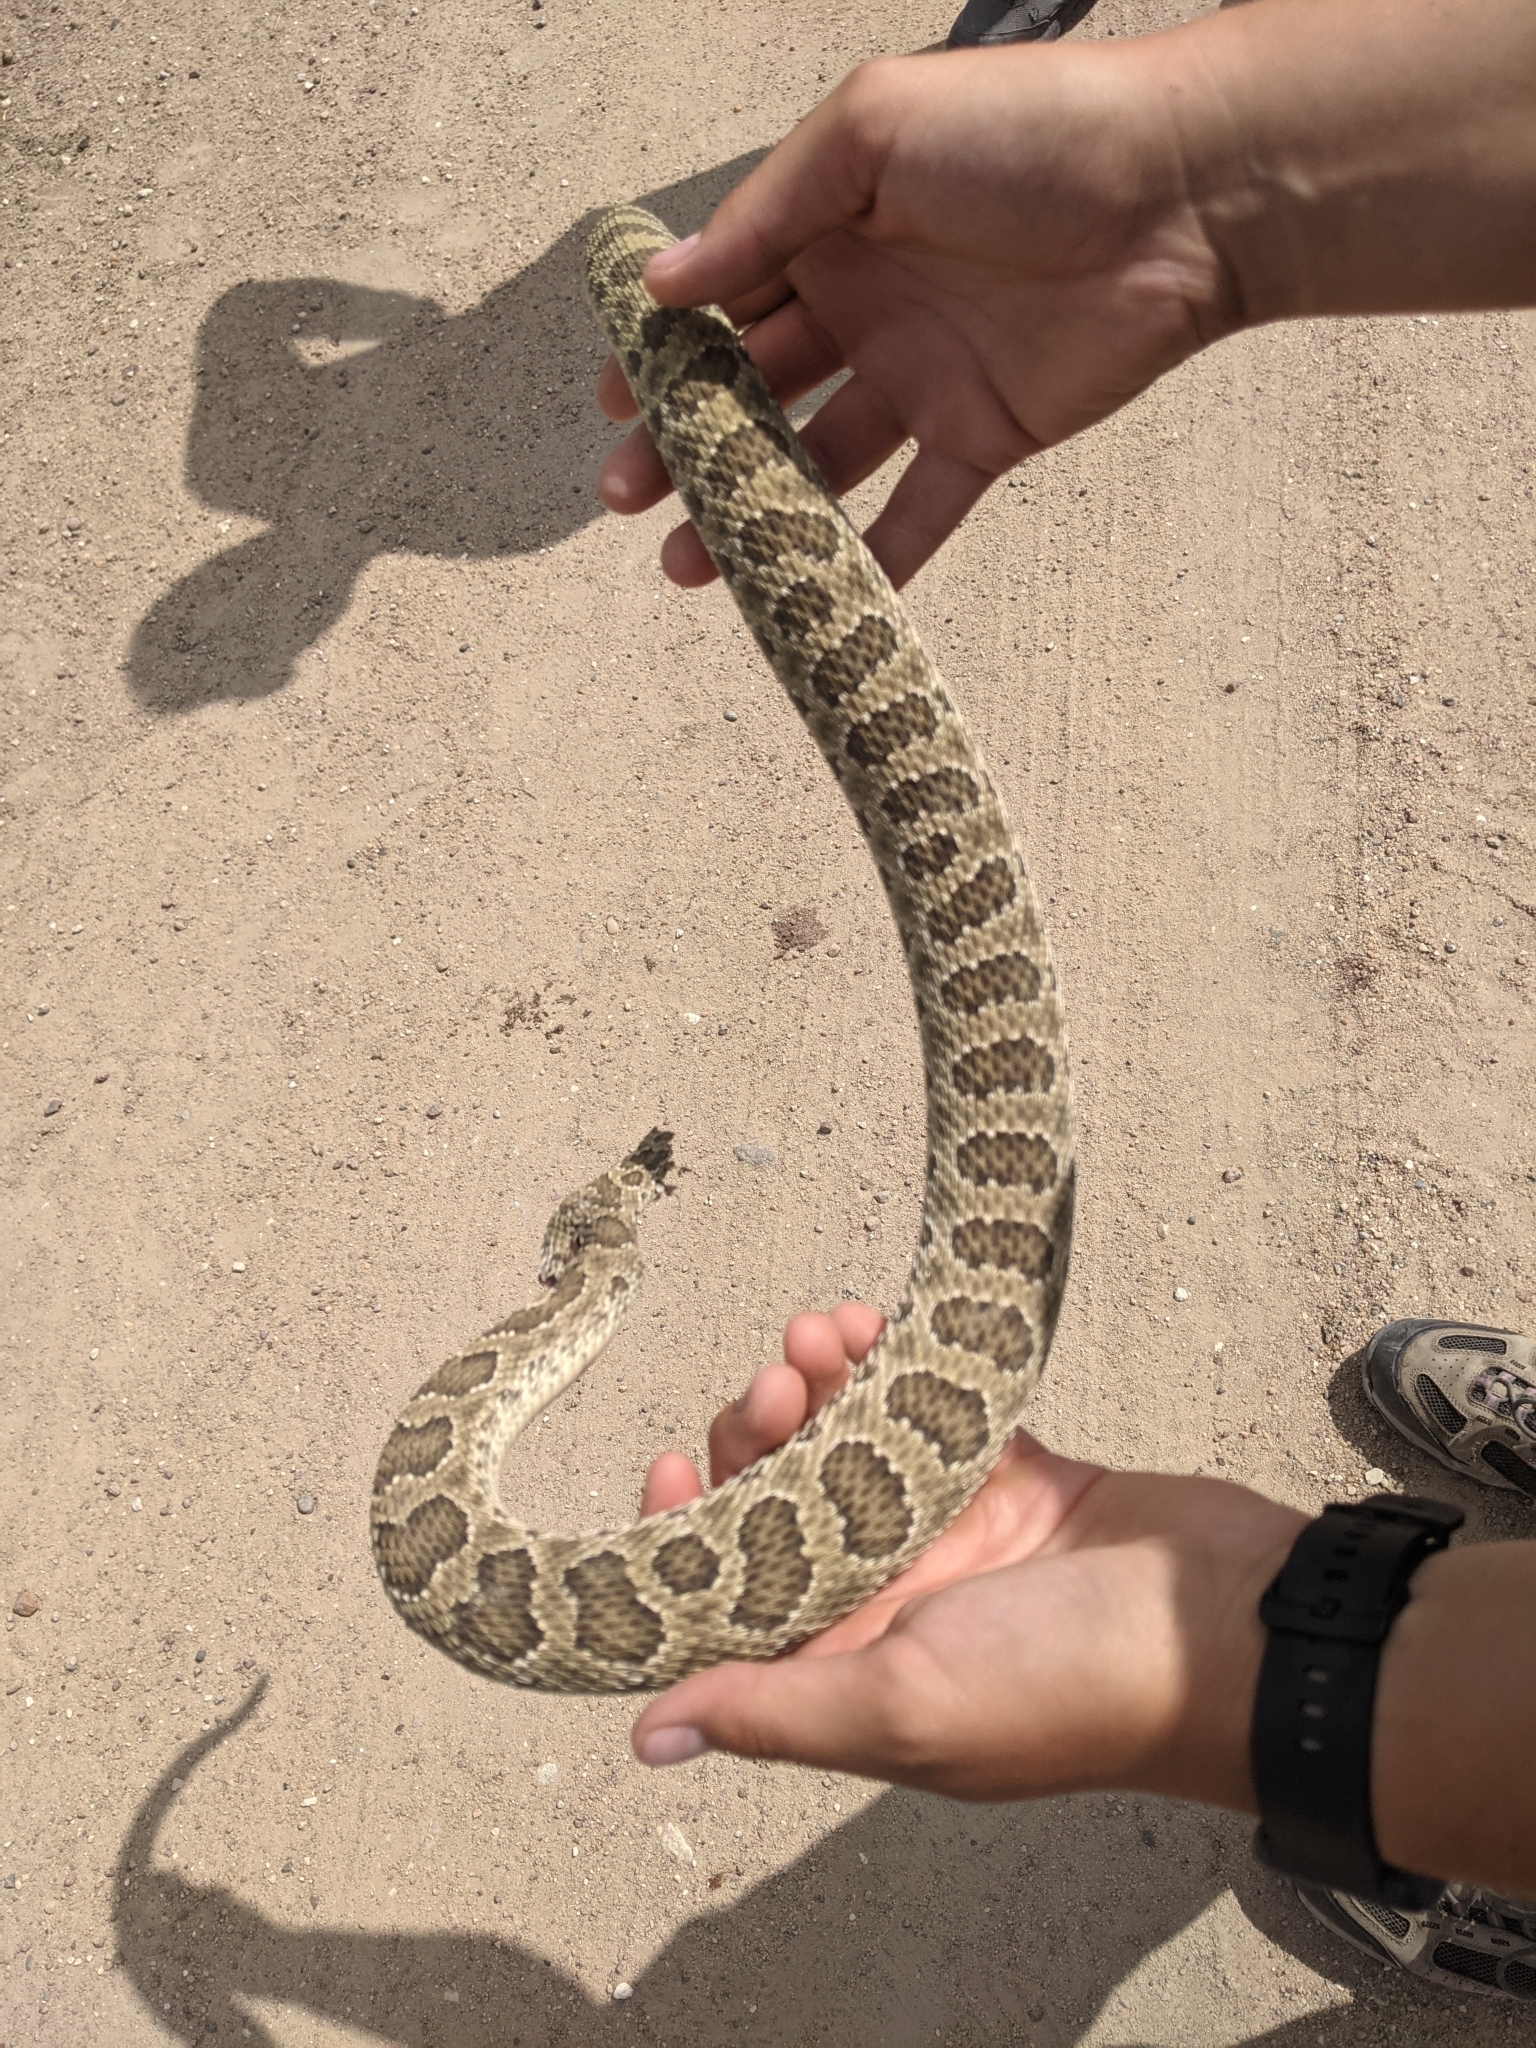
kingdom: Animalia
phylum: Chordata
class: Squamata
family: Viperidae
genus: Crotalus
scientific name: Crotalus viridis
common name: Prairie rattlesnake
